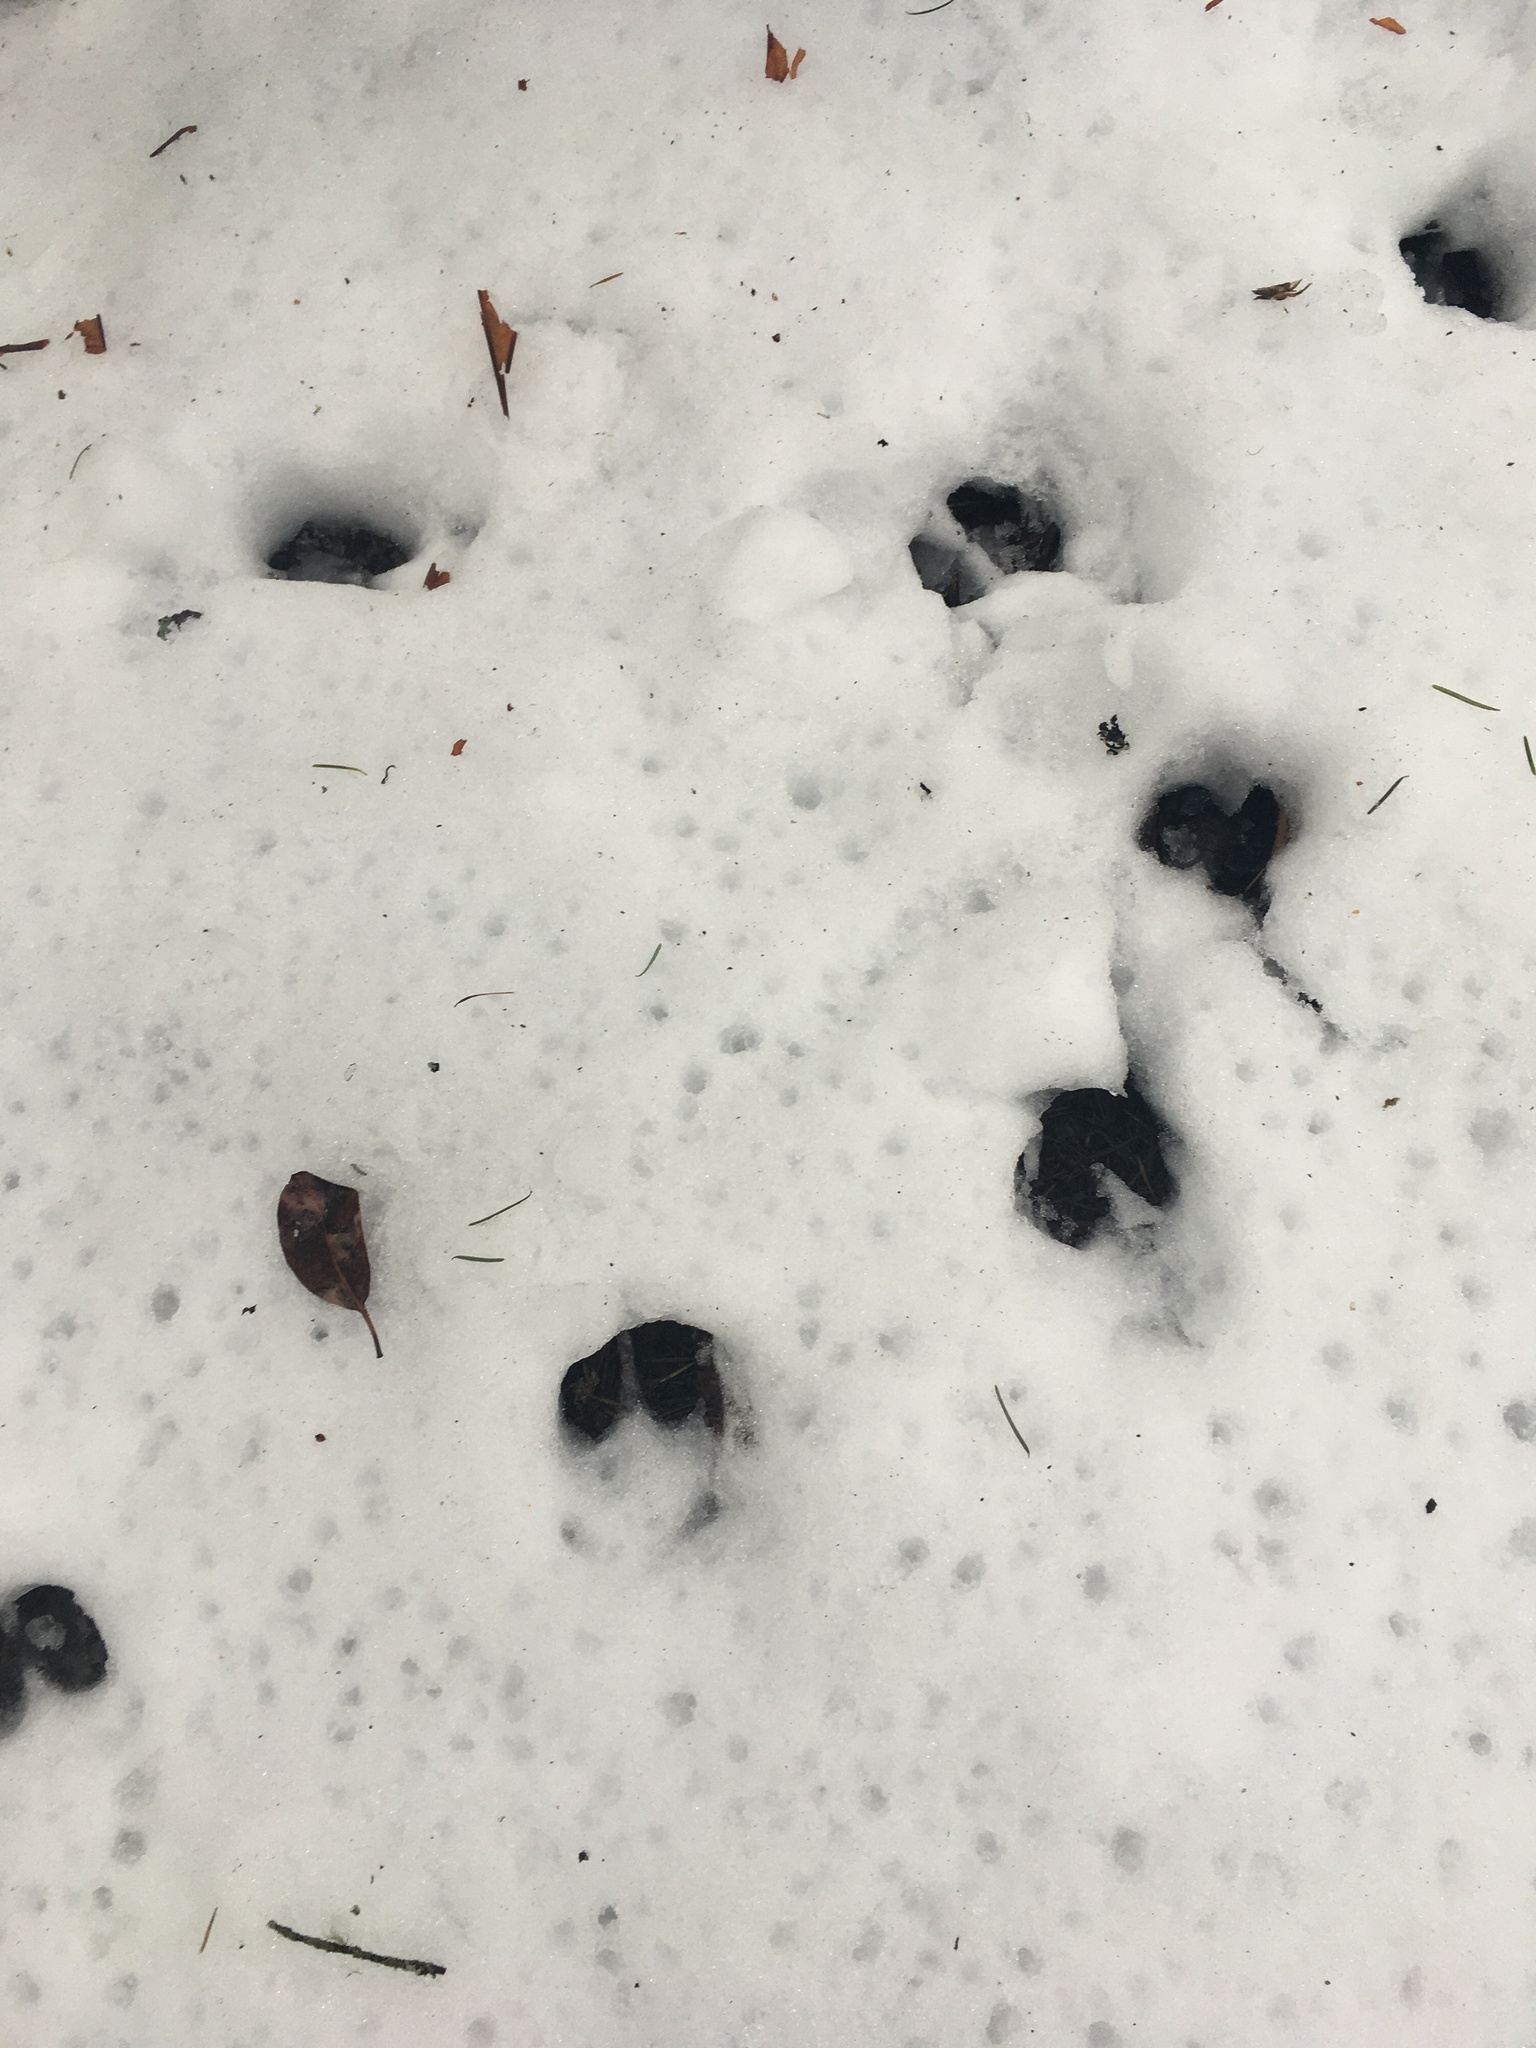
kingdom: Animalia
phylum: Chordata
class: Mammalia
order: Artiodactyla
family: Cervidae
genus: Odocoileus
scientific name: Odocoileus hemionus
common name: Mule deer
